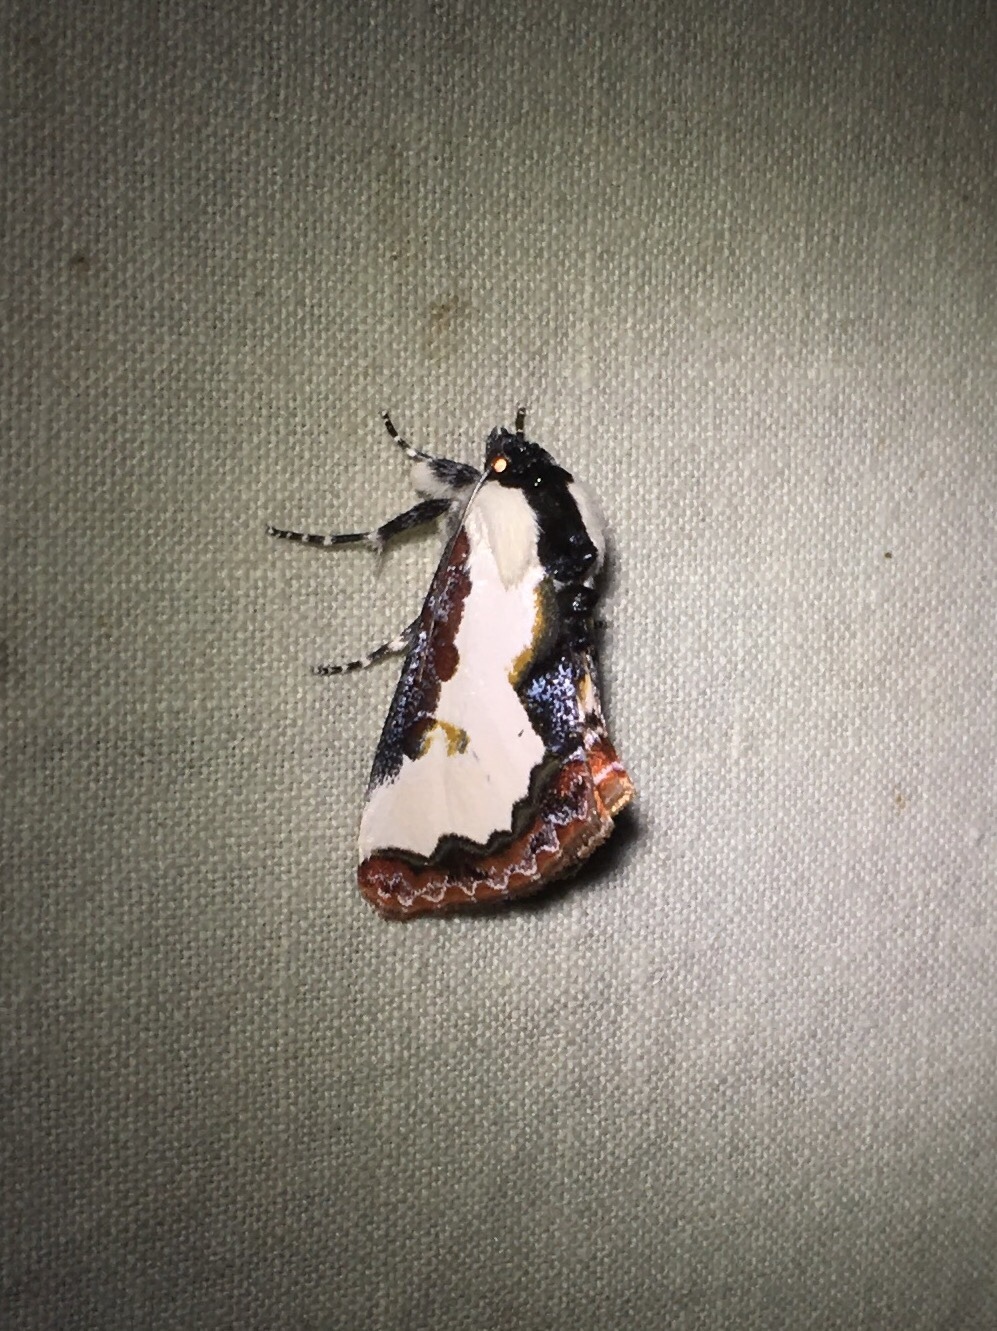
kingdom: Animalia
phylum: Arthropoda
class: Insecta
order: Lepidoptera
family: Noctuidae
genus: Eudryas
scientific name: Eudryas unio
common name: Pearly wood-nymph
